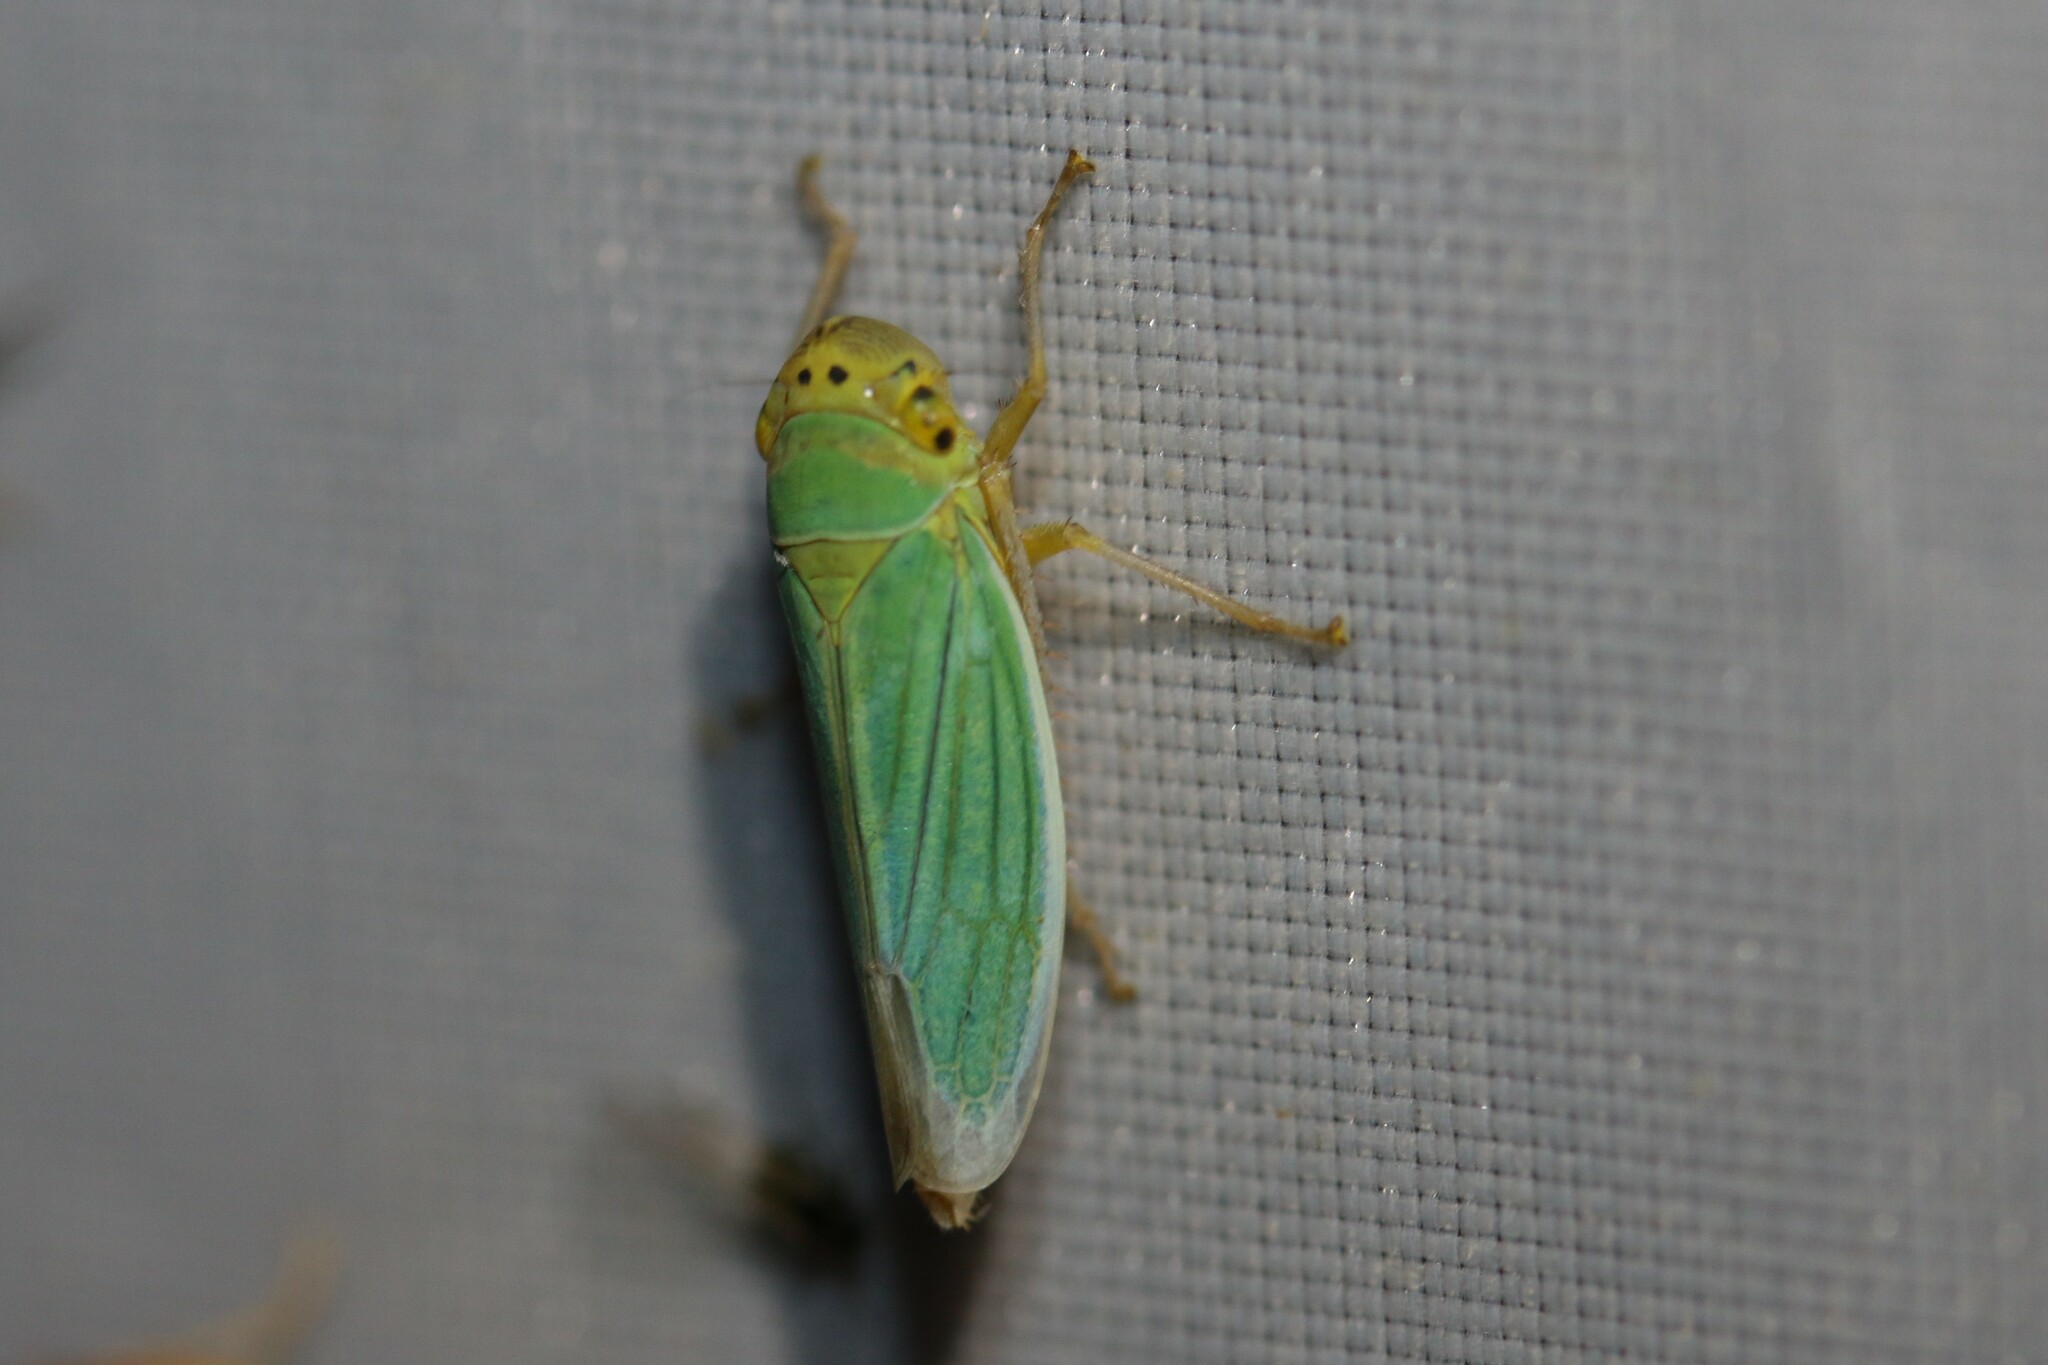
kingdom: Animalia
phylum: Arthropoda
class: Insecta
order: Hemiptera
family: Cicadellidae
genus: Cicadella
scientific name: Cicadella viridis
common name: Leafhopper
